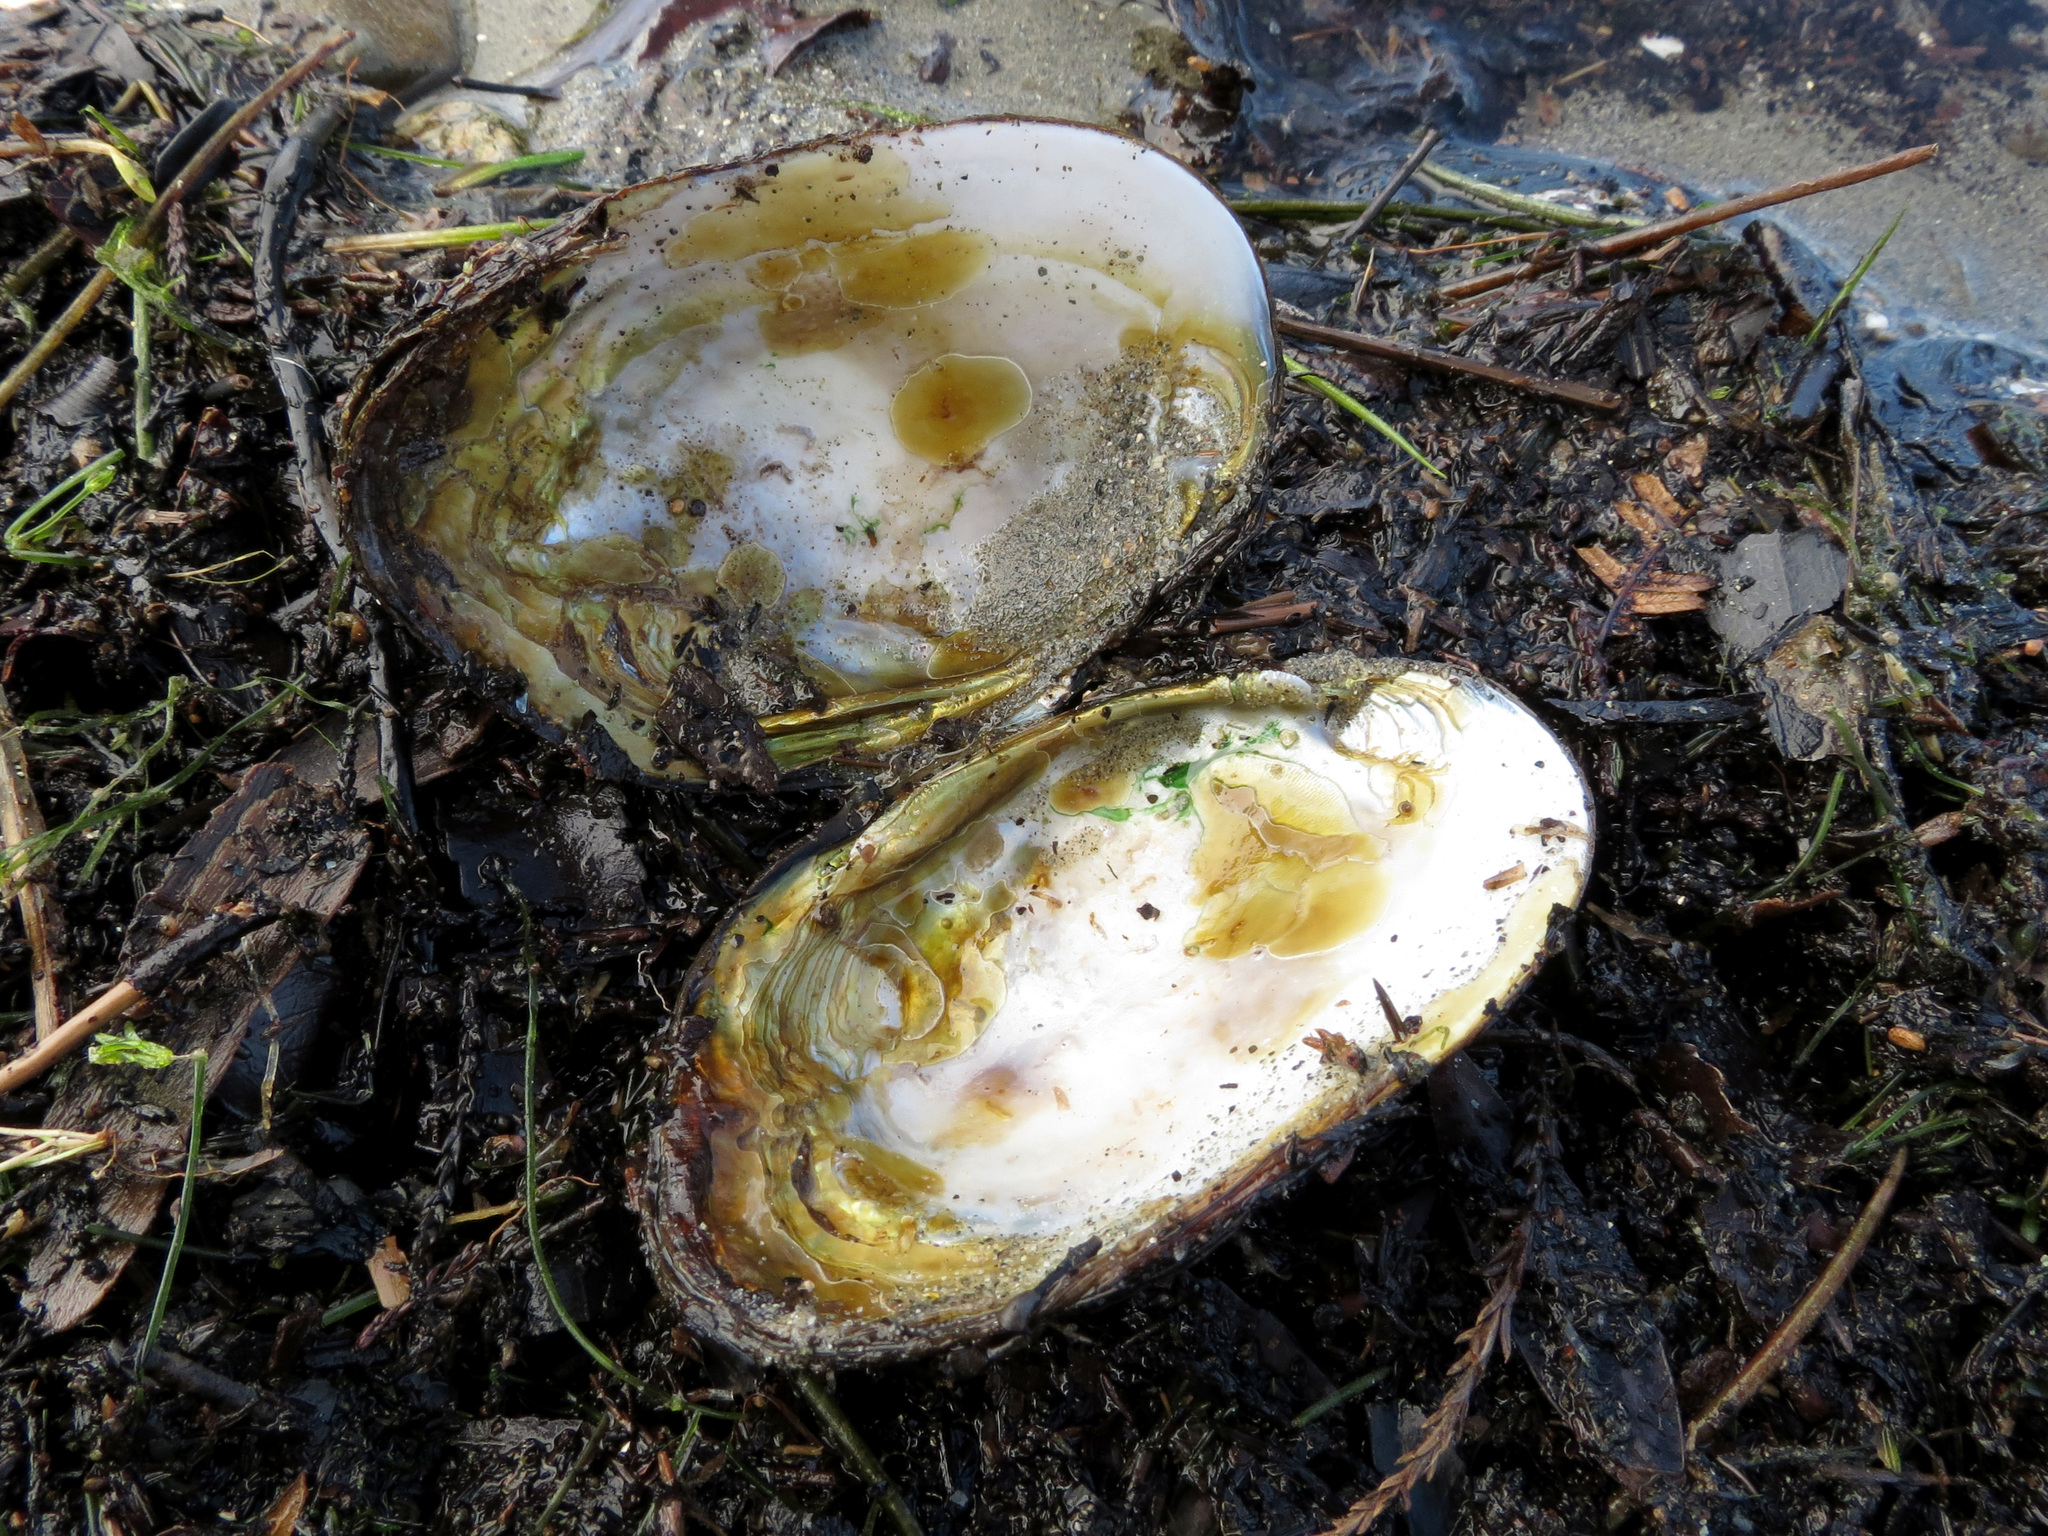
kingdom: Animalia
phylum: Mollusca
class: Bivalvia
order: Unionida
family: Hyriidae
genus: Echyridella
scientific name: Echyridella menziesii
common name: New zealand freshwater mussel
